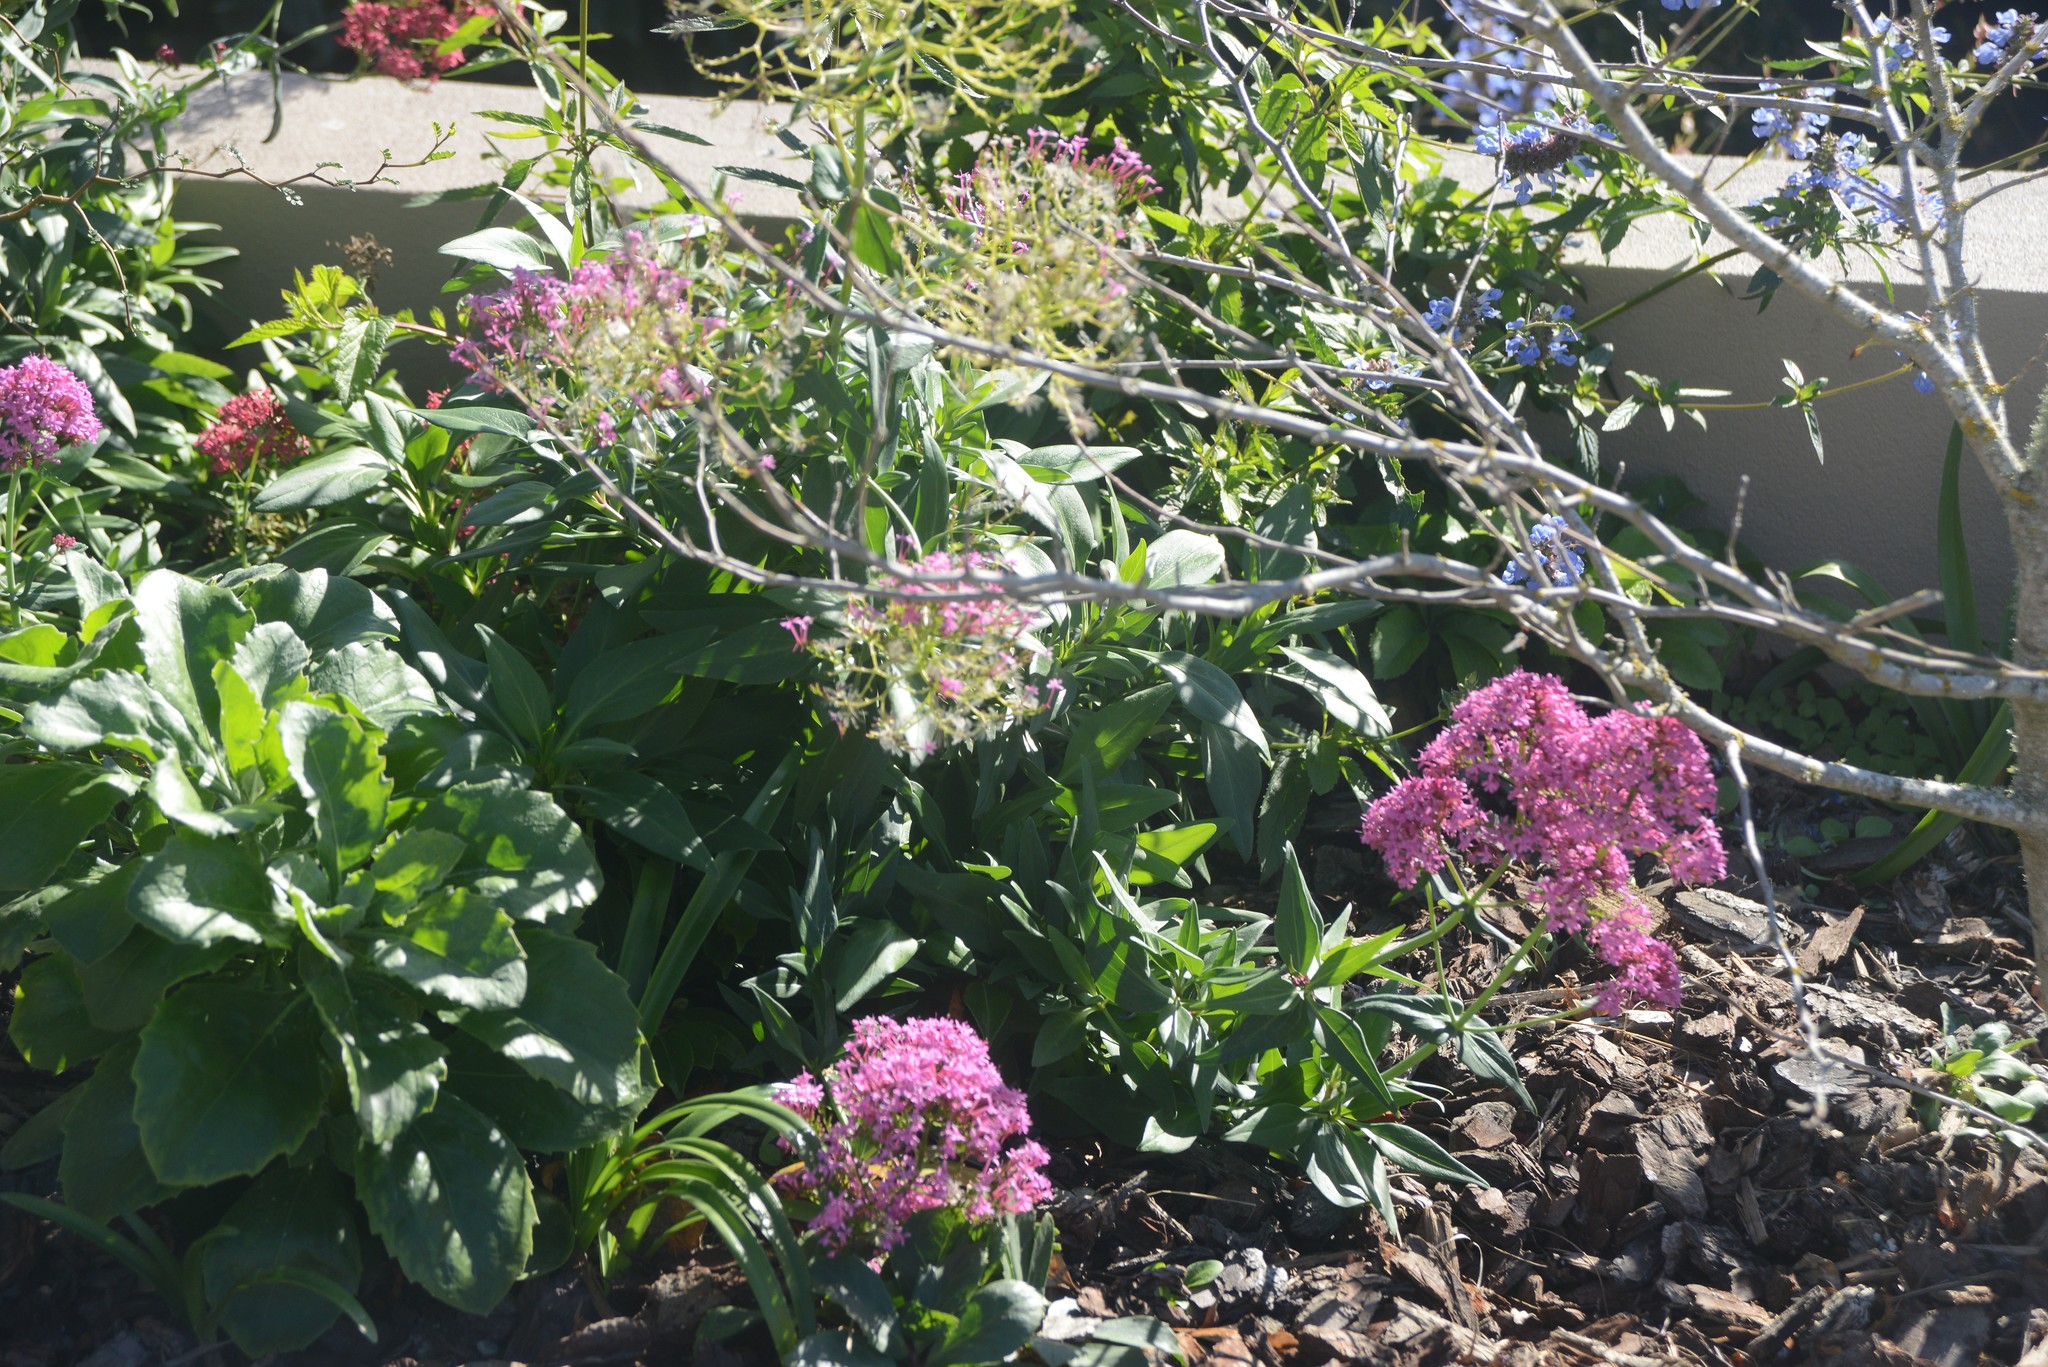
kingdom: Plantae
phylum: Tracheophyta
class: Magnoliopsida
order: Dipsacales
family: Caprifoliaceae
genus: Centranthus
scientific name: Centranthus ruber
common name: Red valerian
